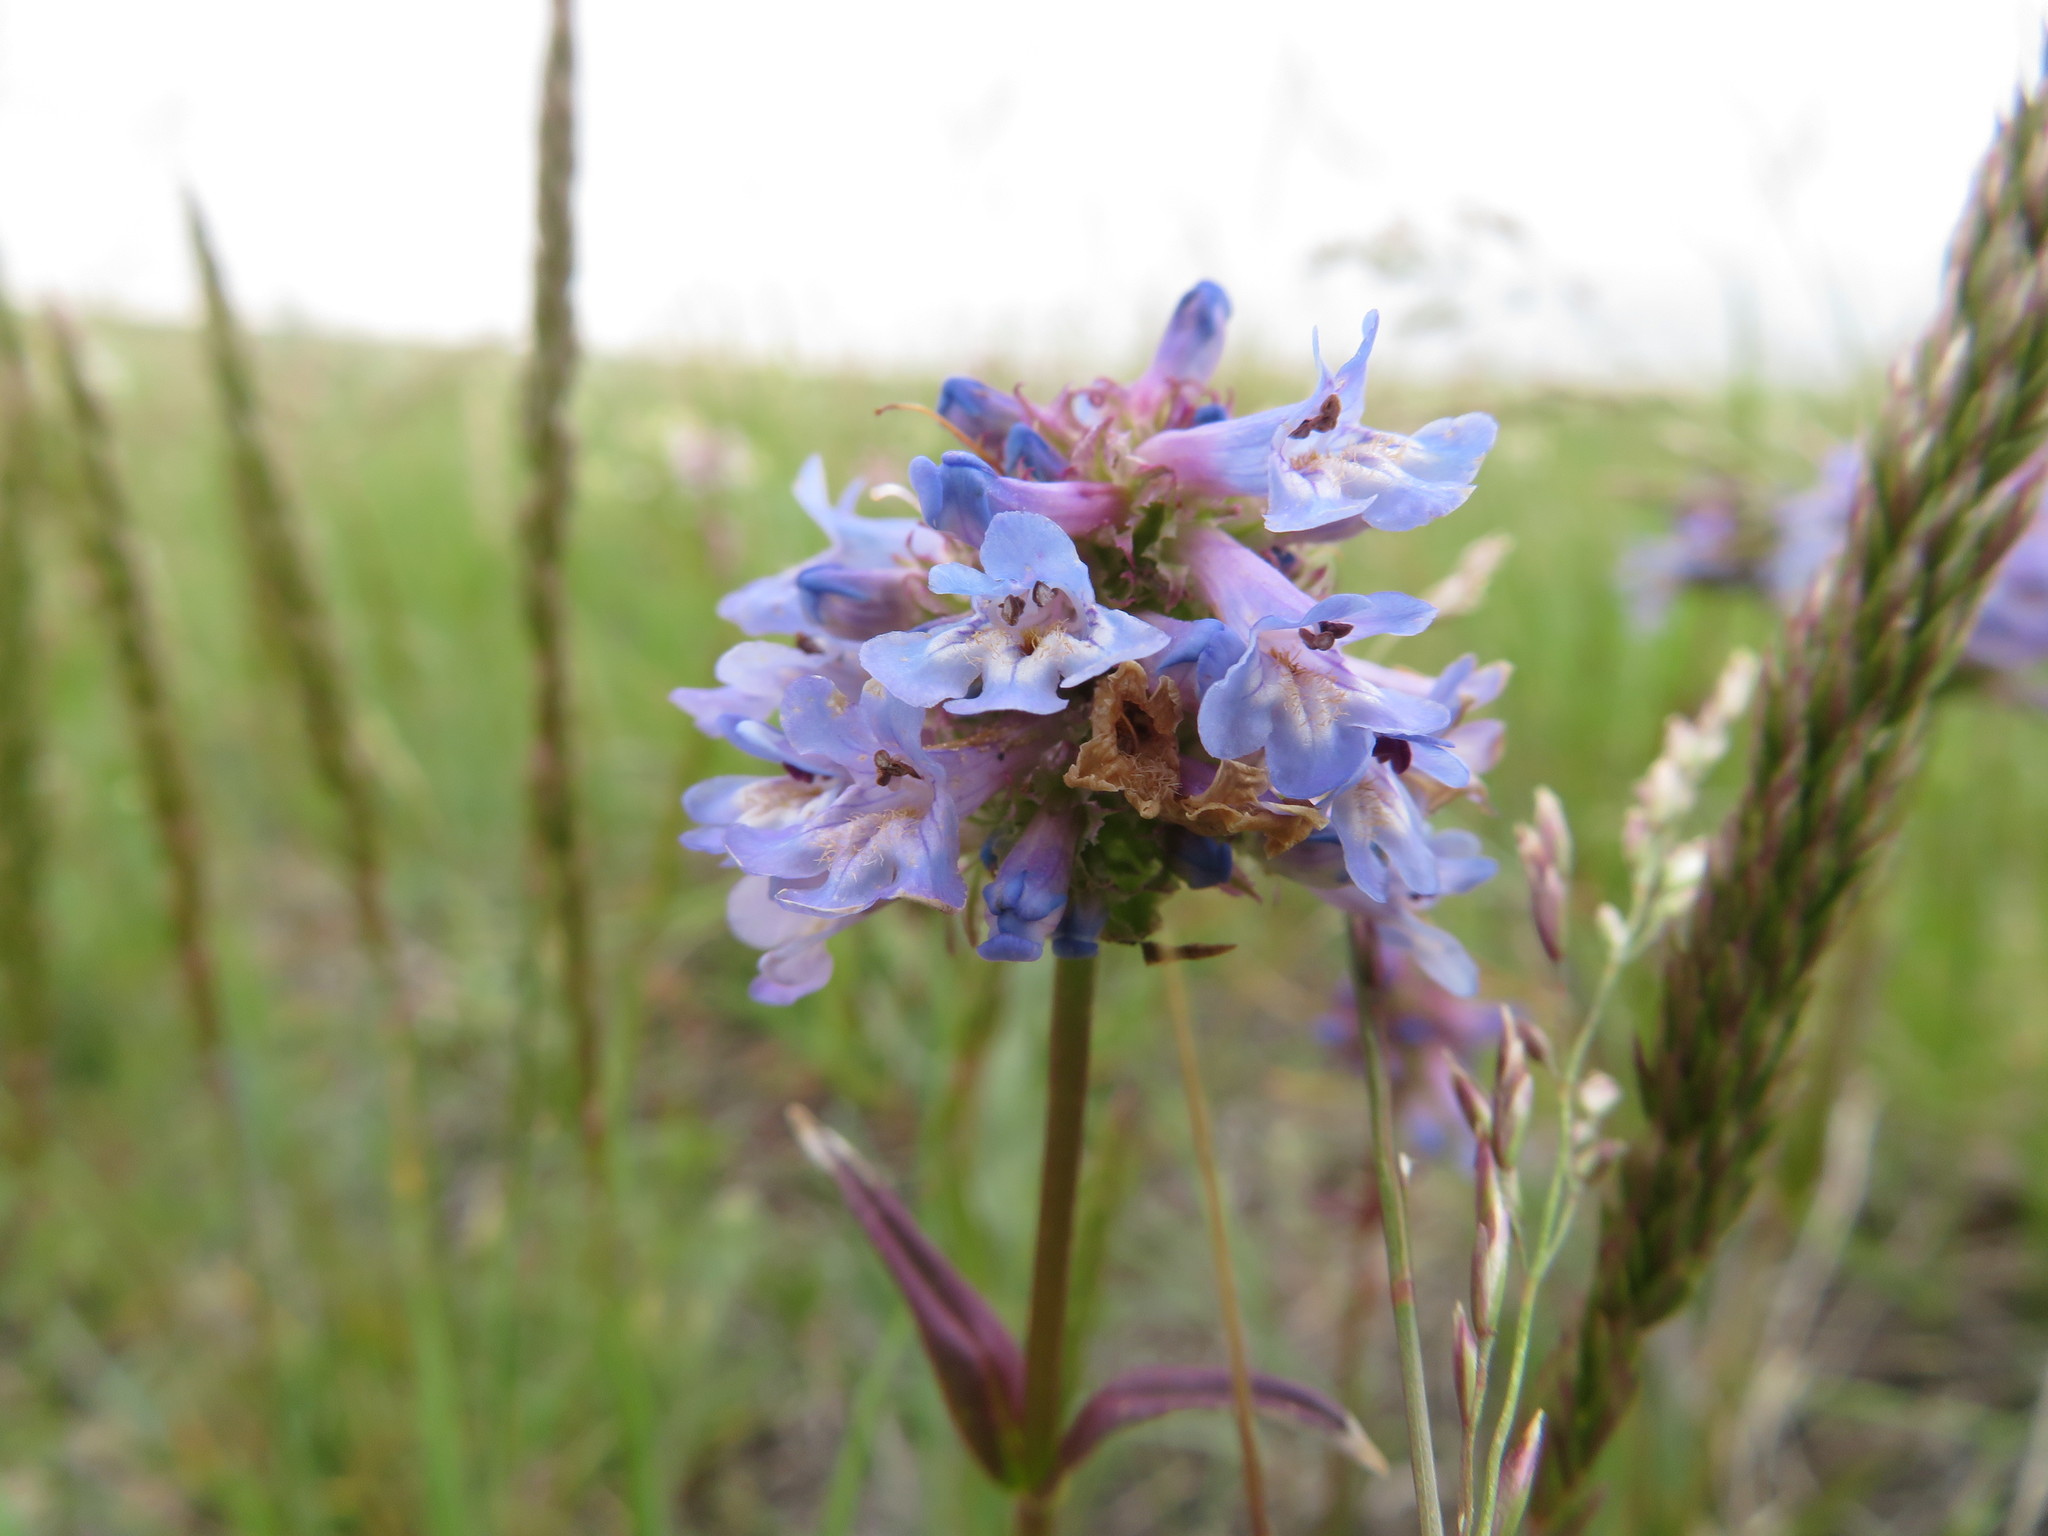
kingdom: Plantae
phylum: Tracheophyta
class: Magnoliopsida
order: Lamiales
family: Plantaginaceae
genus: Penstemon
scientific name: Penstemon procerus
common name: Small-flower penstemon
